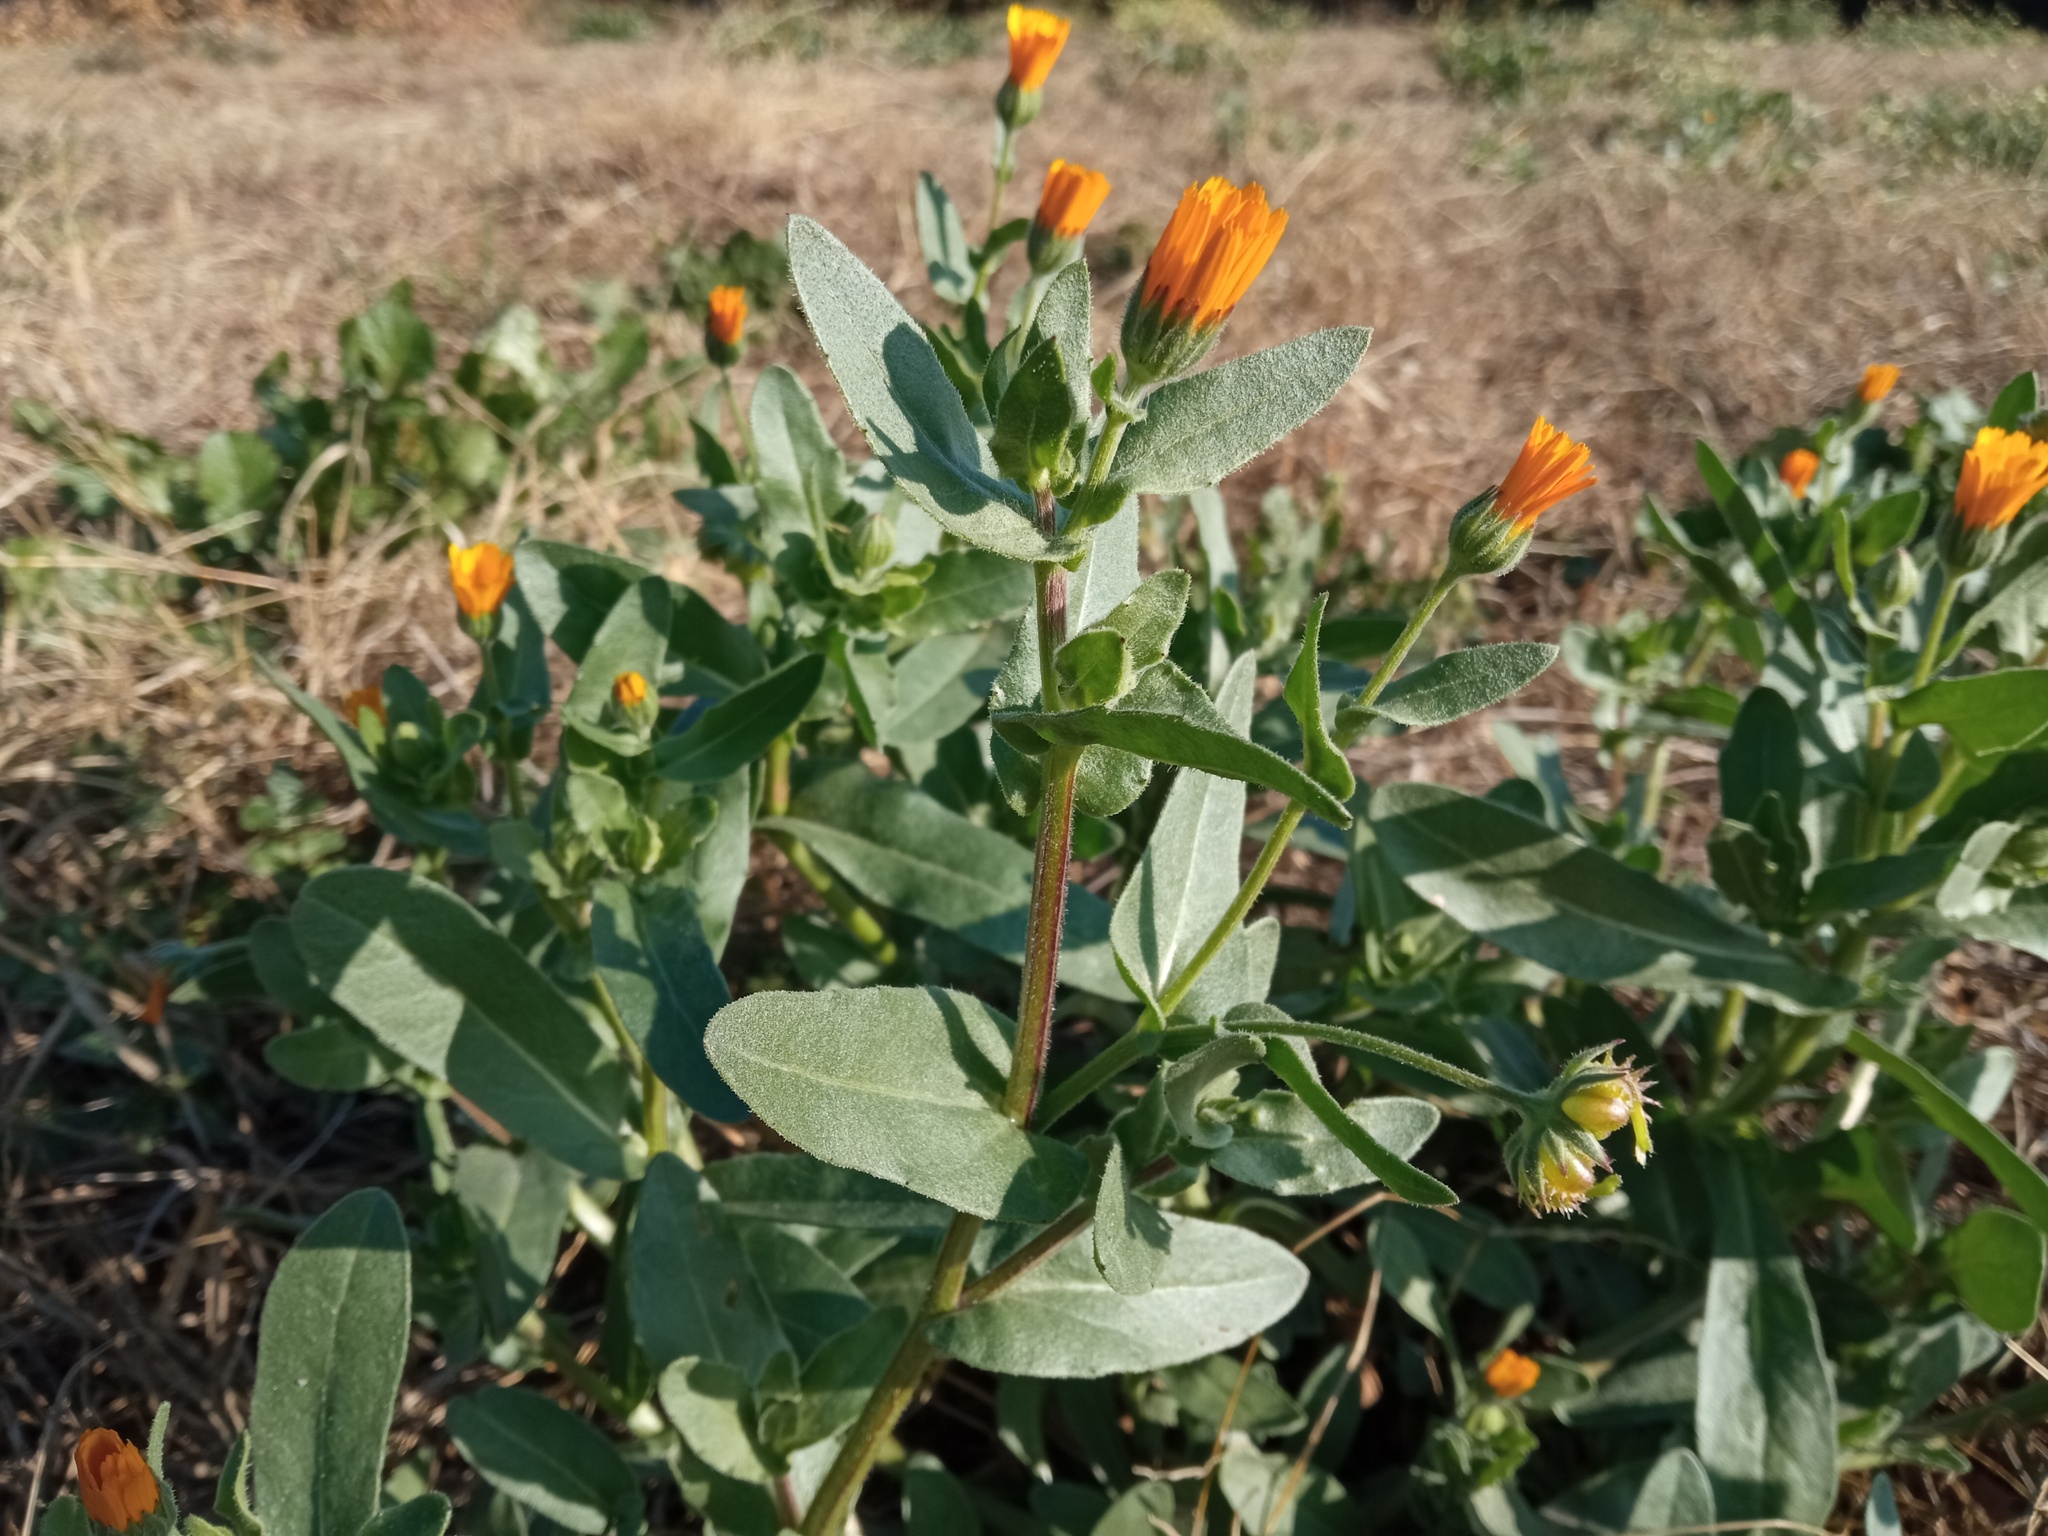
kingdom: Plantae
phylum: Tracheophyta
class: Magnoliopsida
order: Asterales
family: Asteraceae
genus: Calendula
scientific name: Calendula arvensis
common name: Field marigold
